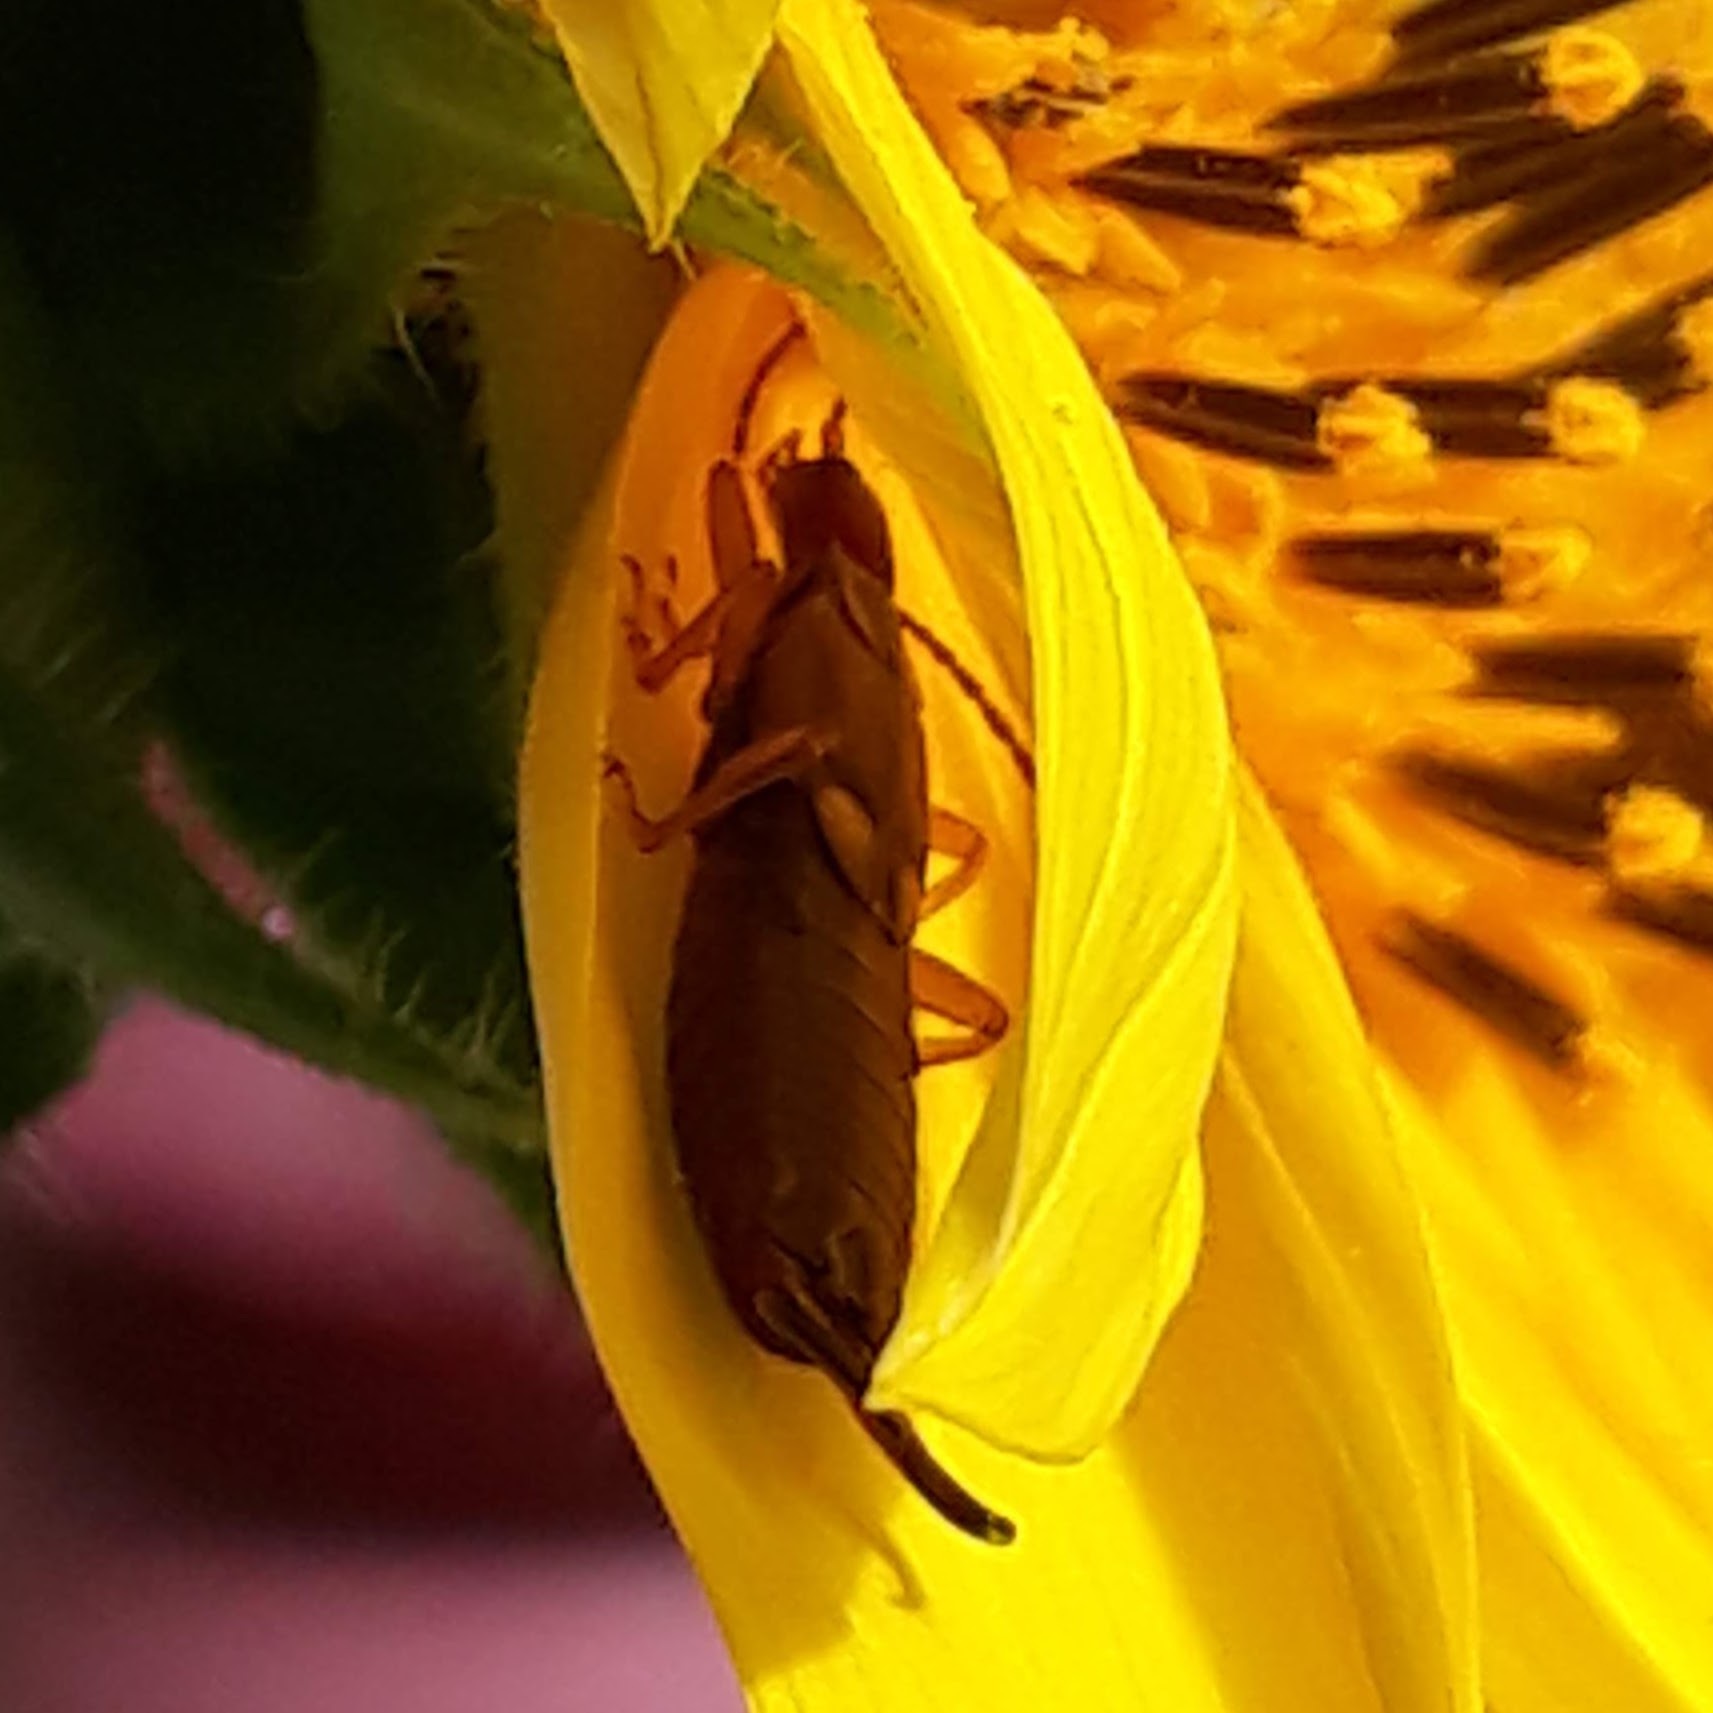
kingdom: Animalia
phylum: Arthropoda
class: Insecta
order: Dermaptera
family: Forficulidae
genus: Forficula
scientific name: Forficula
